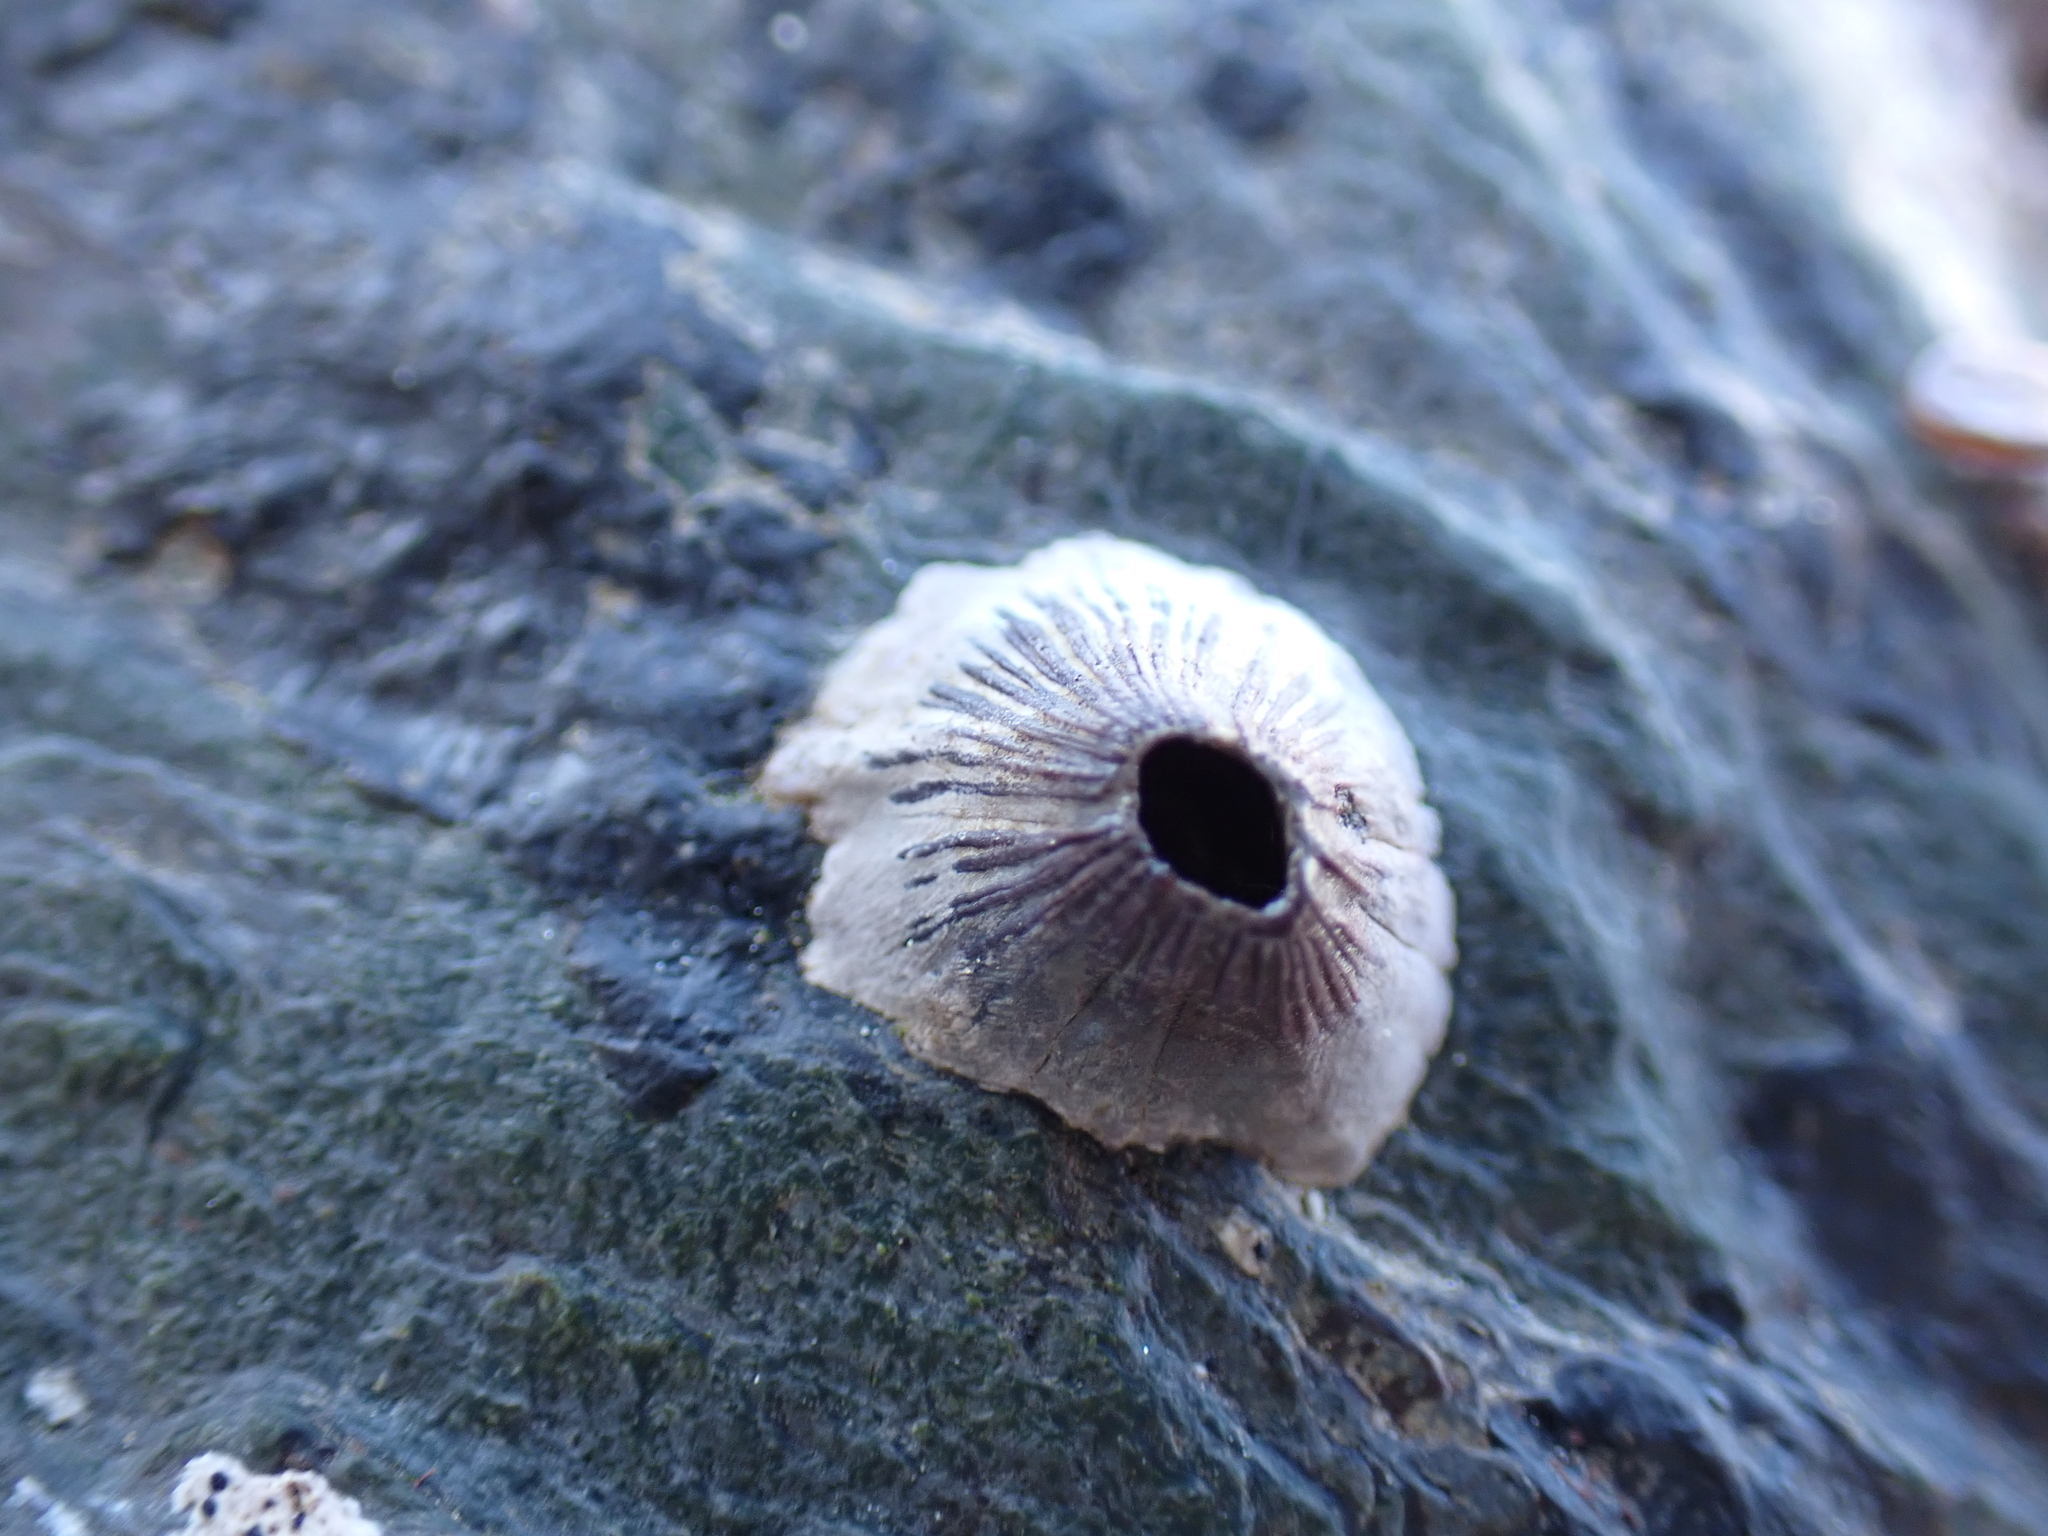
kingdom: Animalia
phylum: Arthropoda
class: Maxillopoda
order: Sessilia
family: Balanidae
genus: Perforatus
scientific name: Perforatus perforatus
